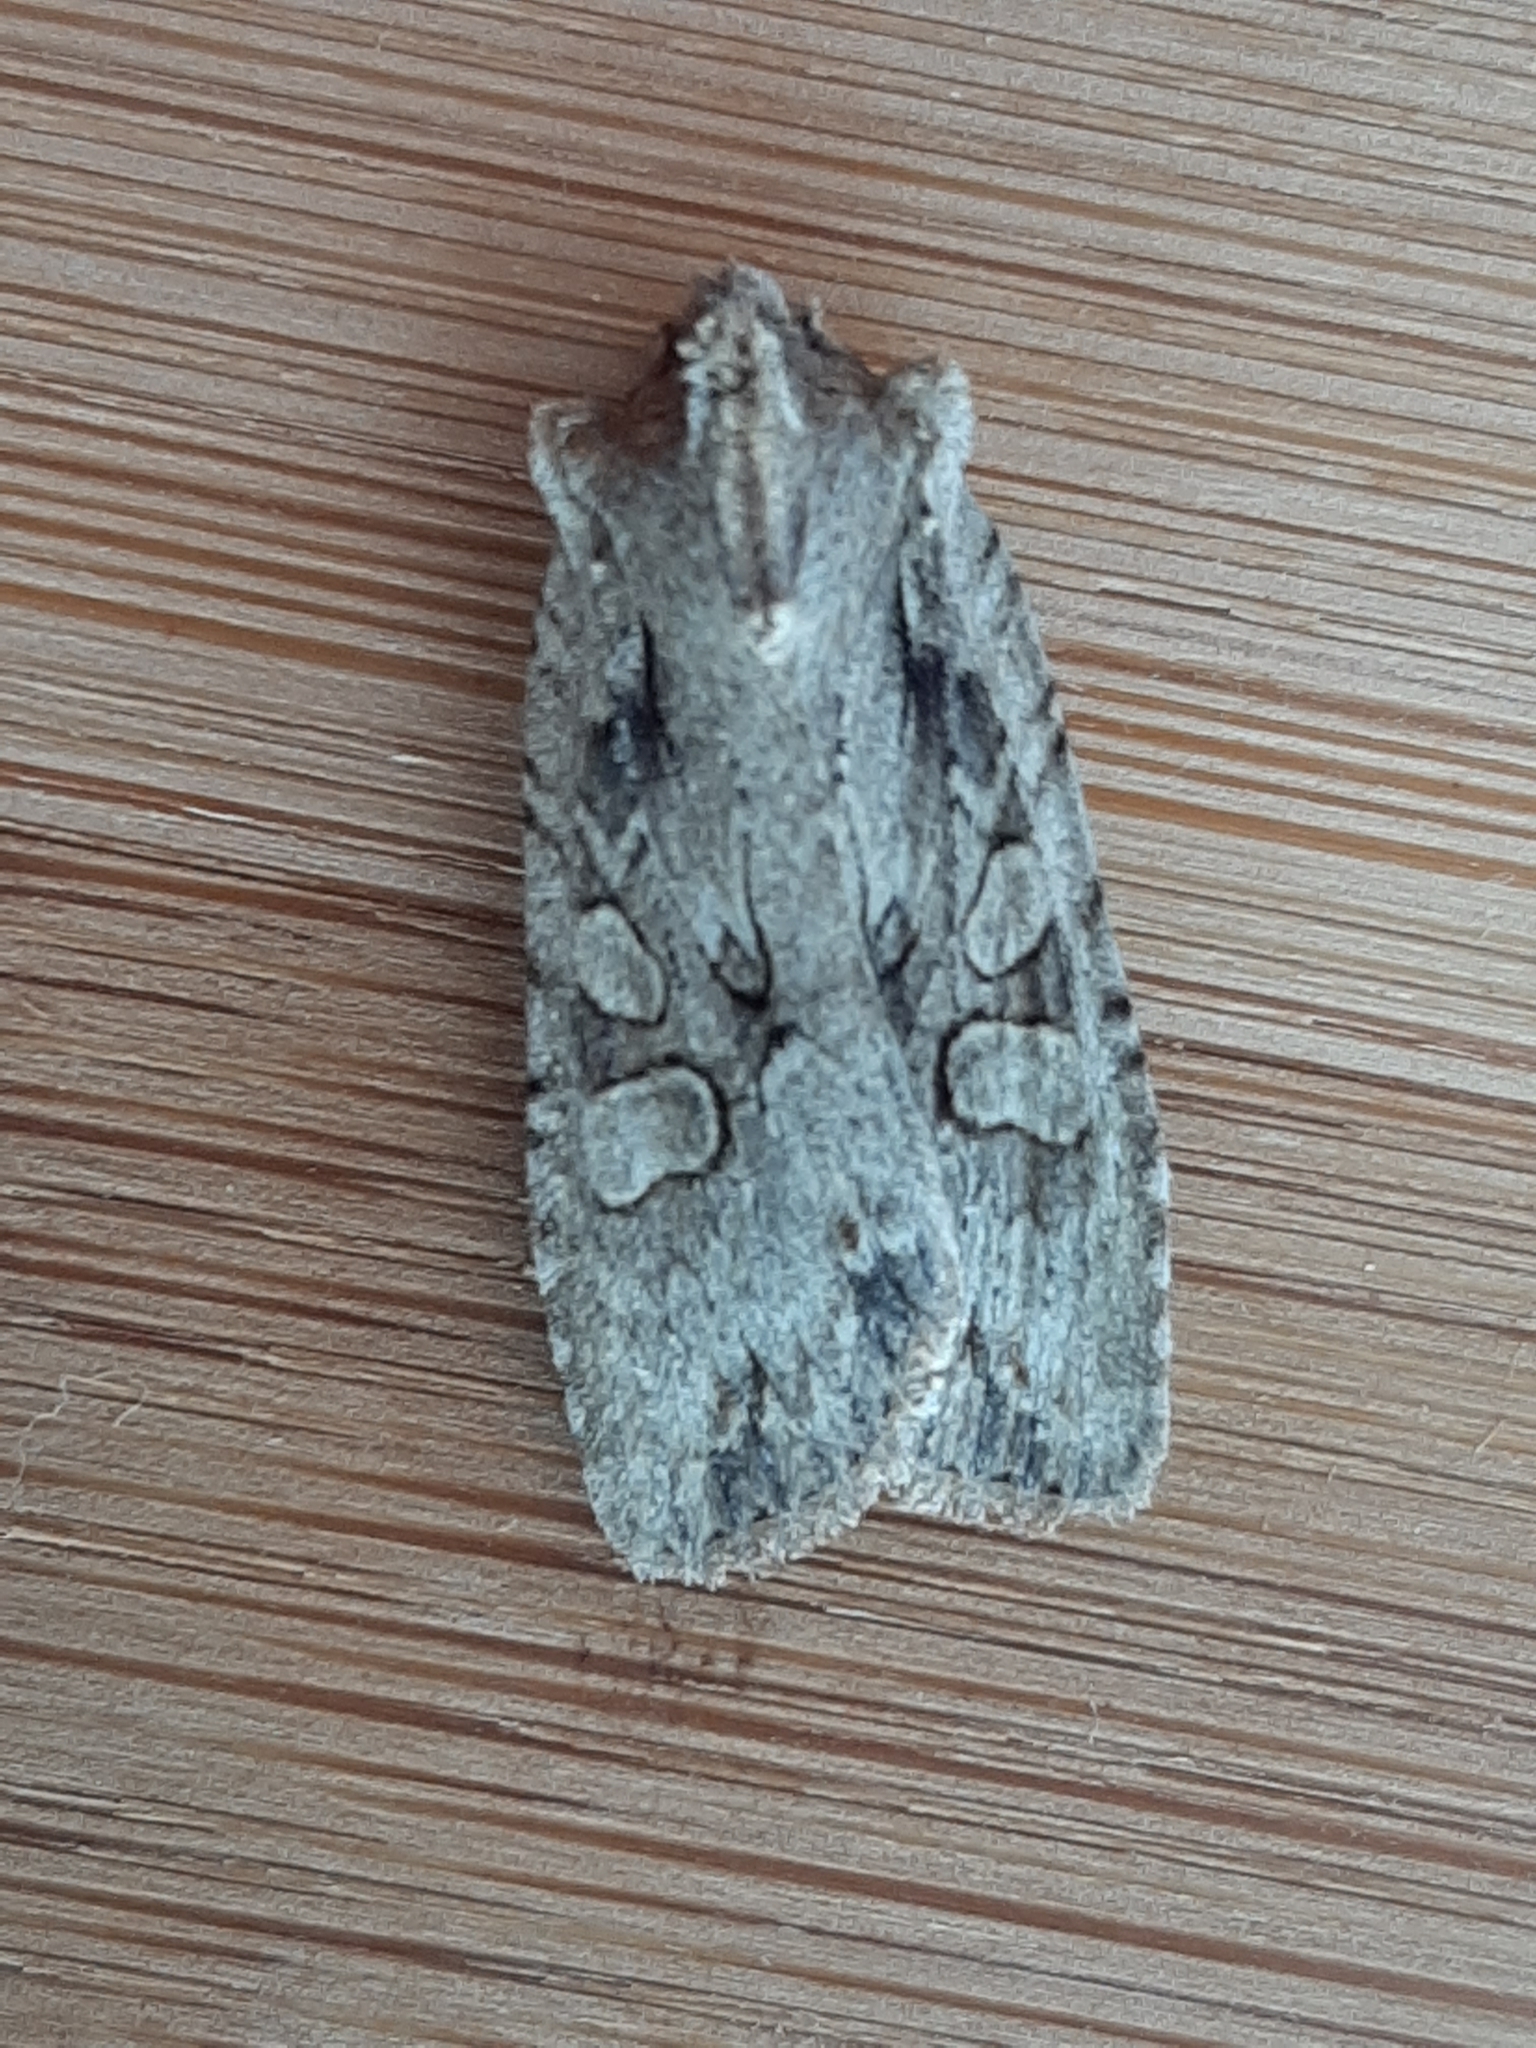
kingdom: Animalia
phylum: Arthropoda
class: Insecta
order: Lepidoptera
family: Noctuidae
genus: Lithophane
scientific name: Lithophane disposita
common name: Dashed gray pinion moth
